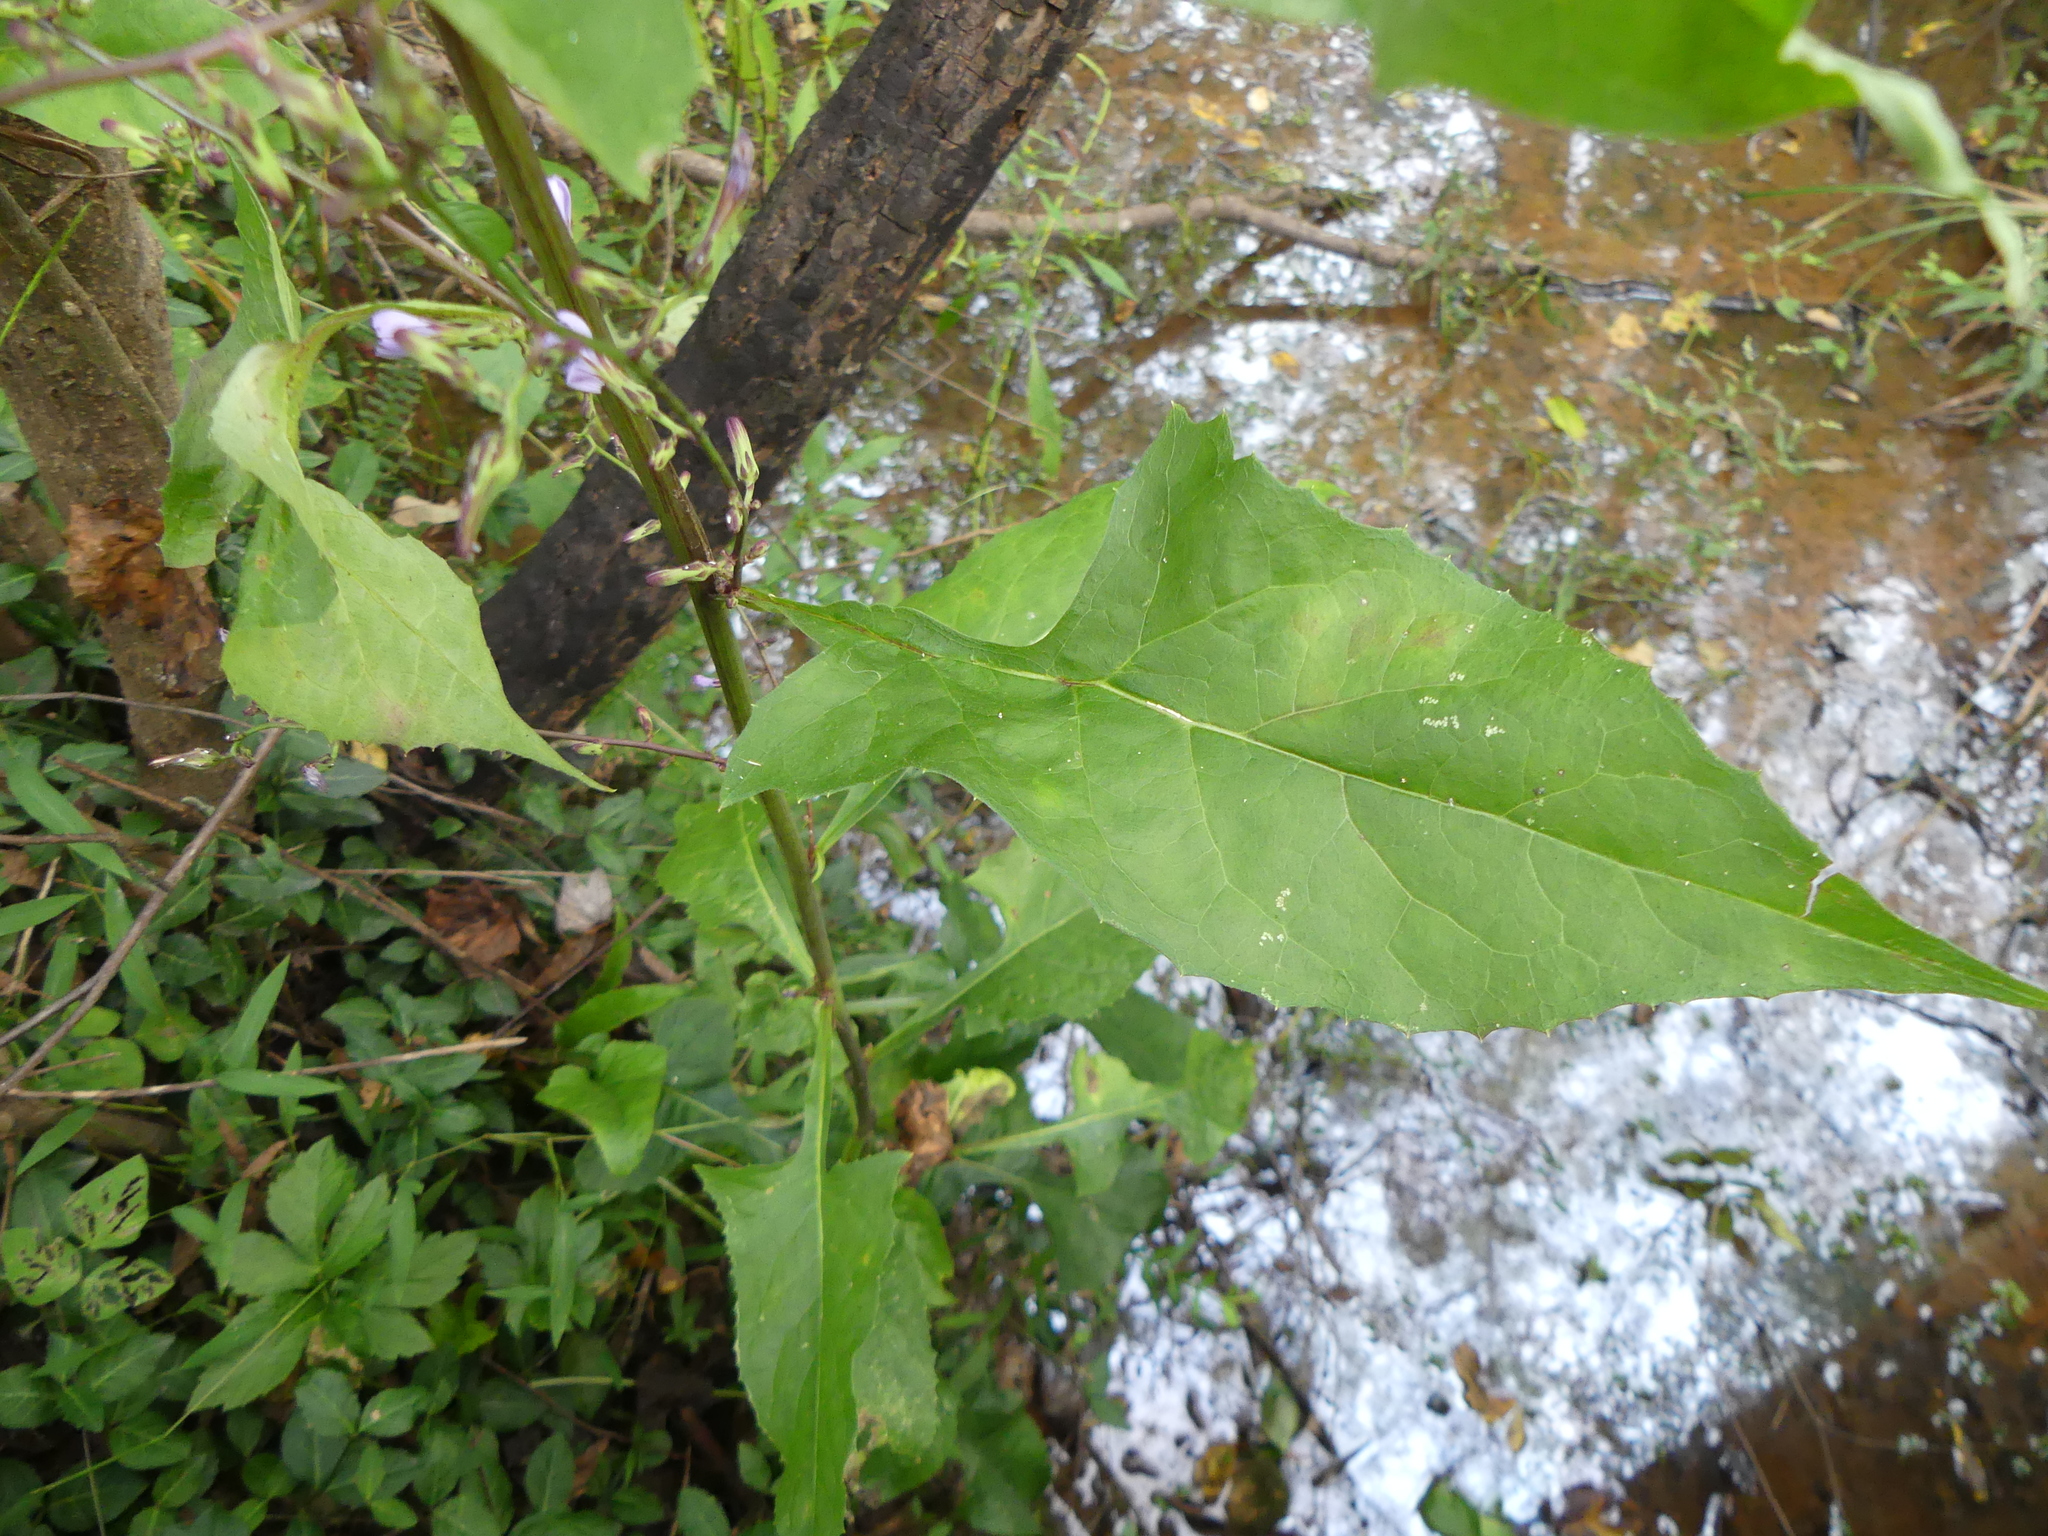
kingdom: Plantae
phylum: Tracheophyta
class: Magnoliopsida
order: Asterales
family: Asteraceae
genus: Lactuca
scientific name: Lactuca floridana
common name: Woodland lettuce
